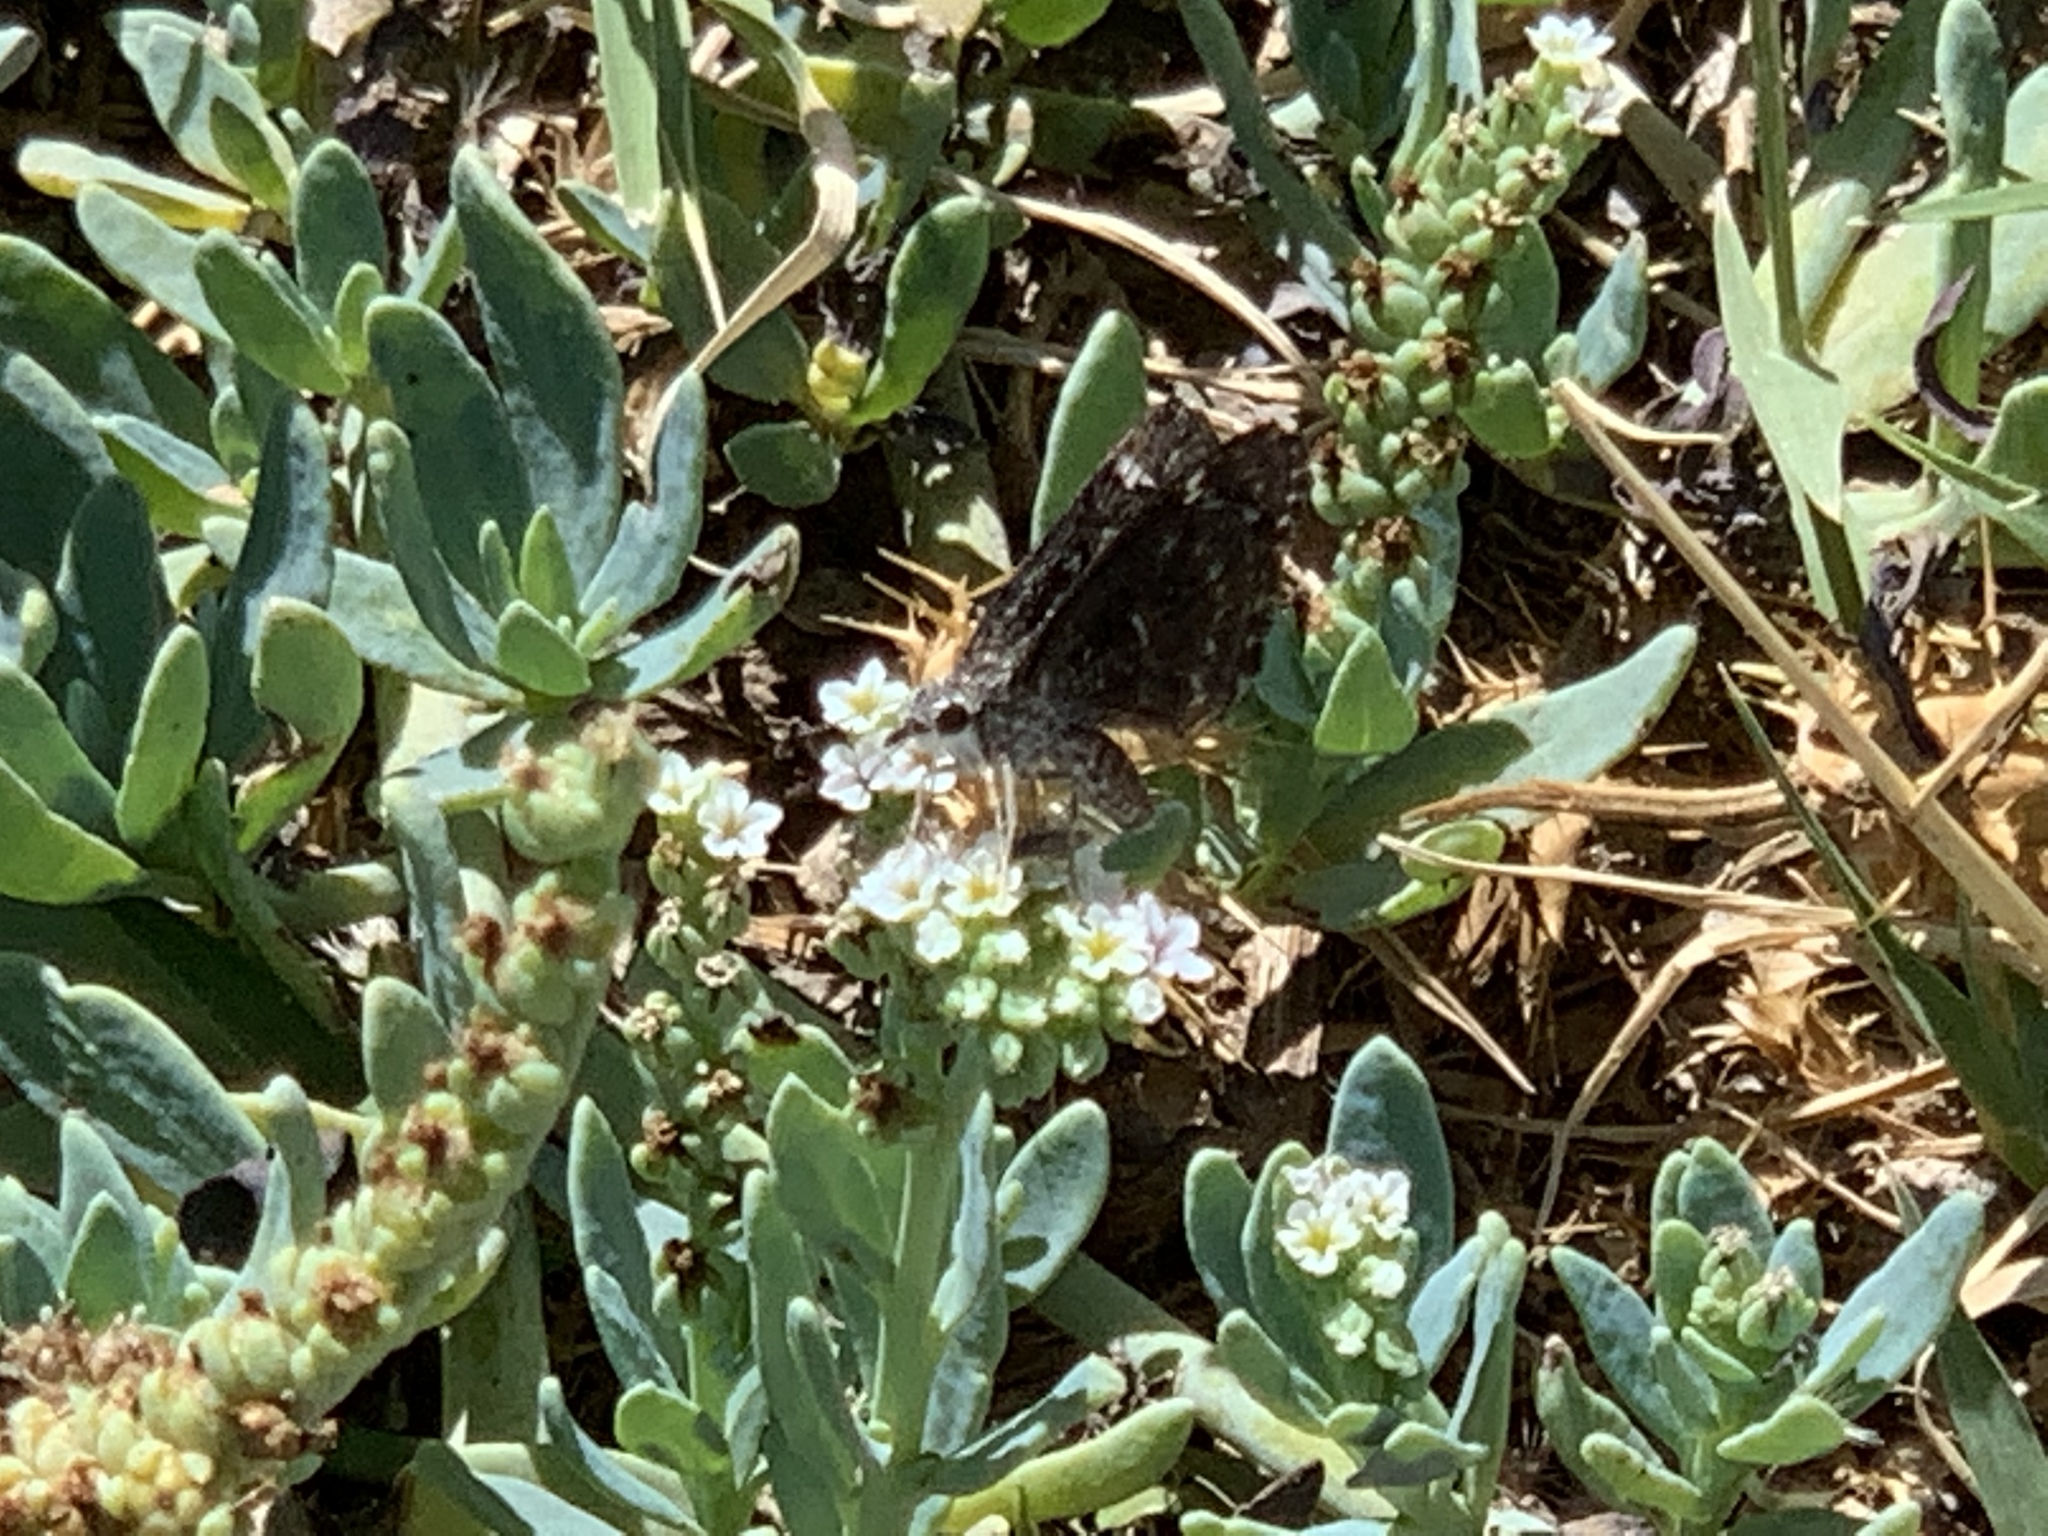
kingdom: Animalia
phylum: Arthropoda
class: Insecta
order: Lepidoptera
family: Hesperiidae
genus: Hesperopsis
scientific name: Hesperopsis alpheus
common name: Saltbush sootywing
